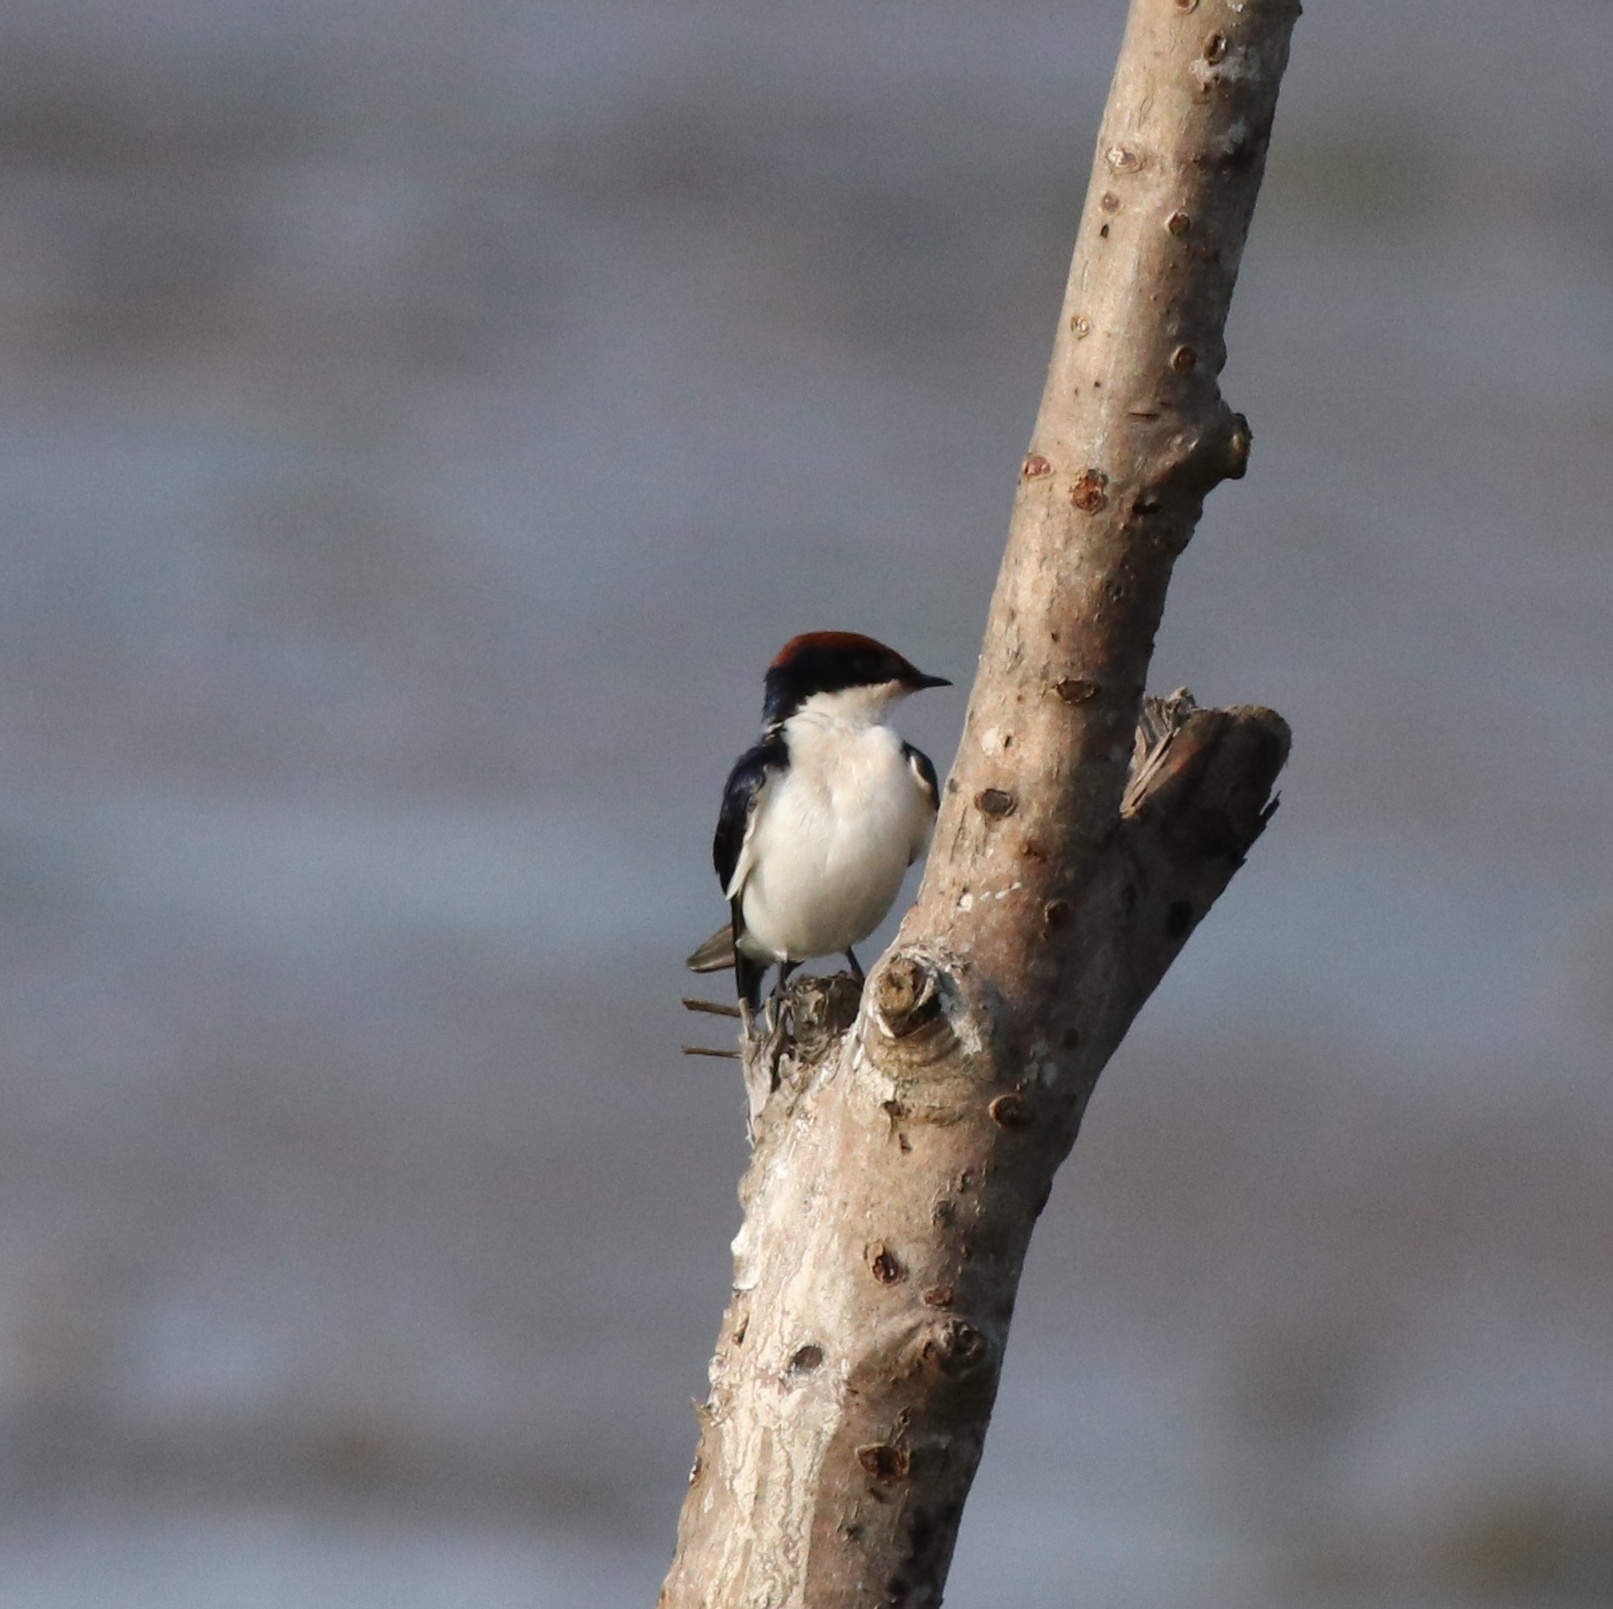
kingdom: Animalia
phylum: Chordata
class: Aves
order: Passeriformes
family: Hirundinidae
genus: Hirundo
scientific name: Hirundo smithii
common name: Wire-tailed swallow
